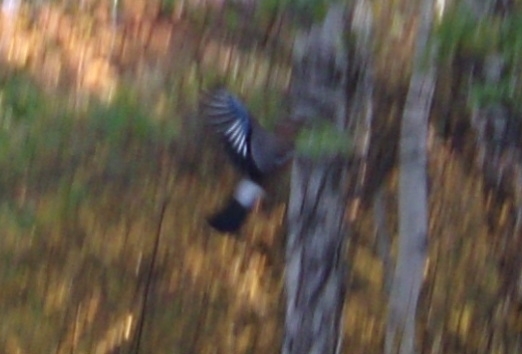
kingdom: Animalia
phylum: Chordata
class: Aves
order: Passeriformes
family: Corvidae
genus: Garrulus
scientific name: Garrulus glandarius
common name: Eurasian jay
